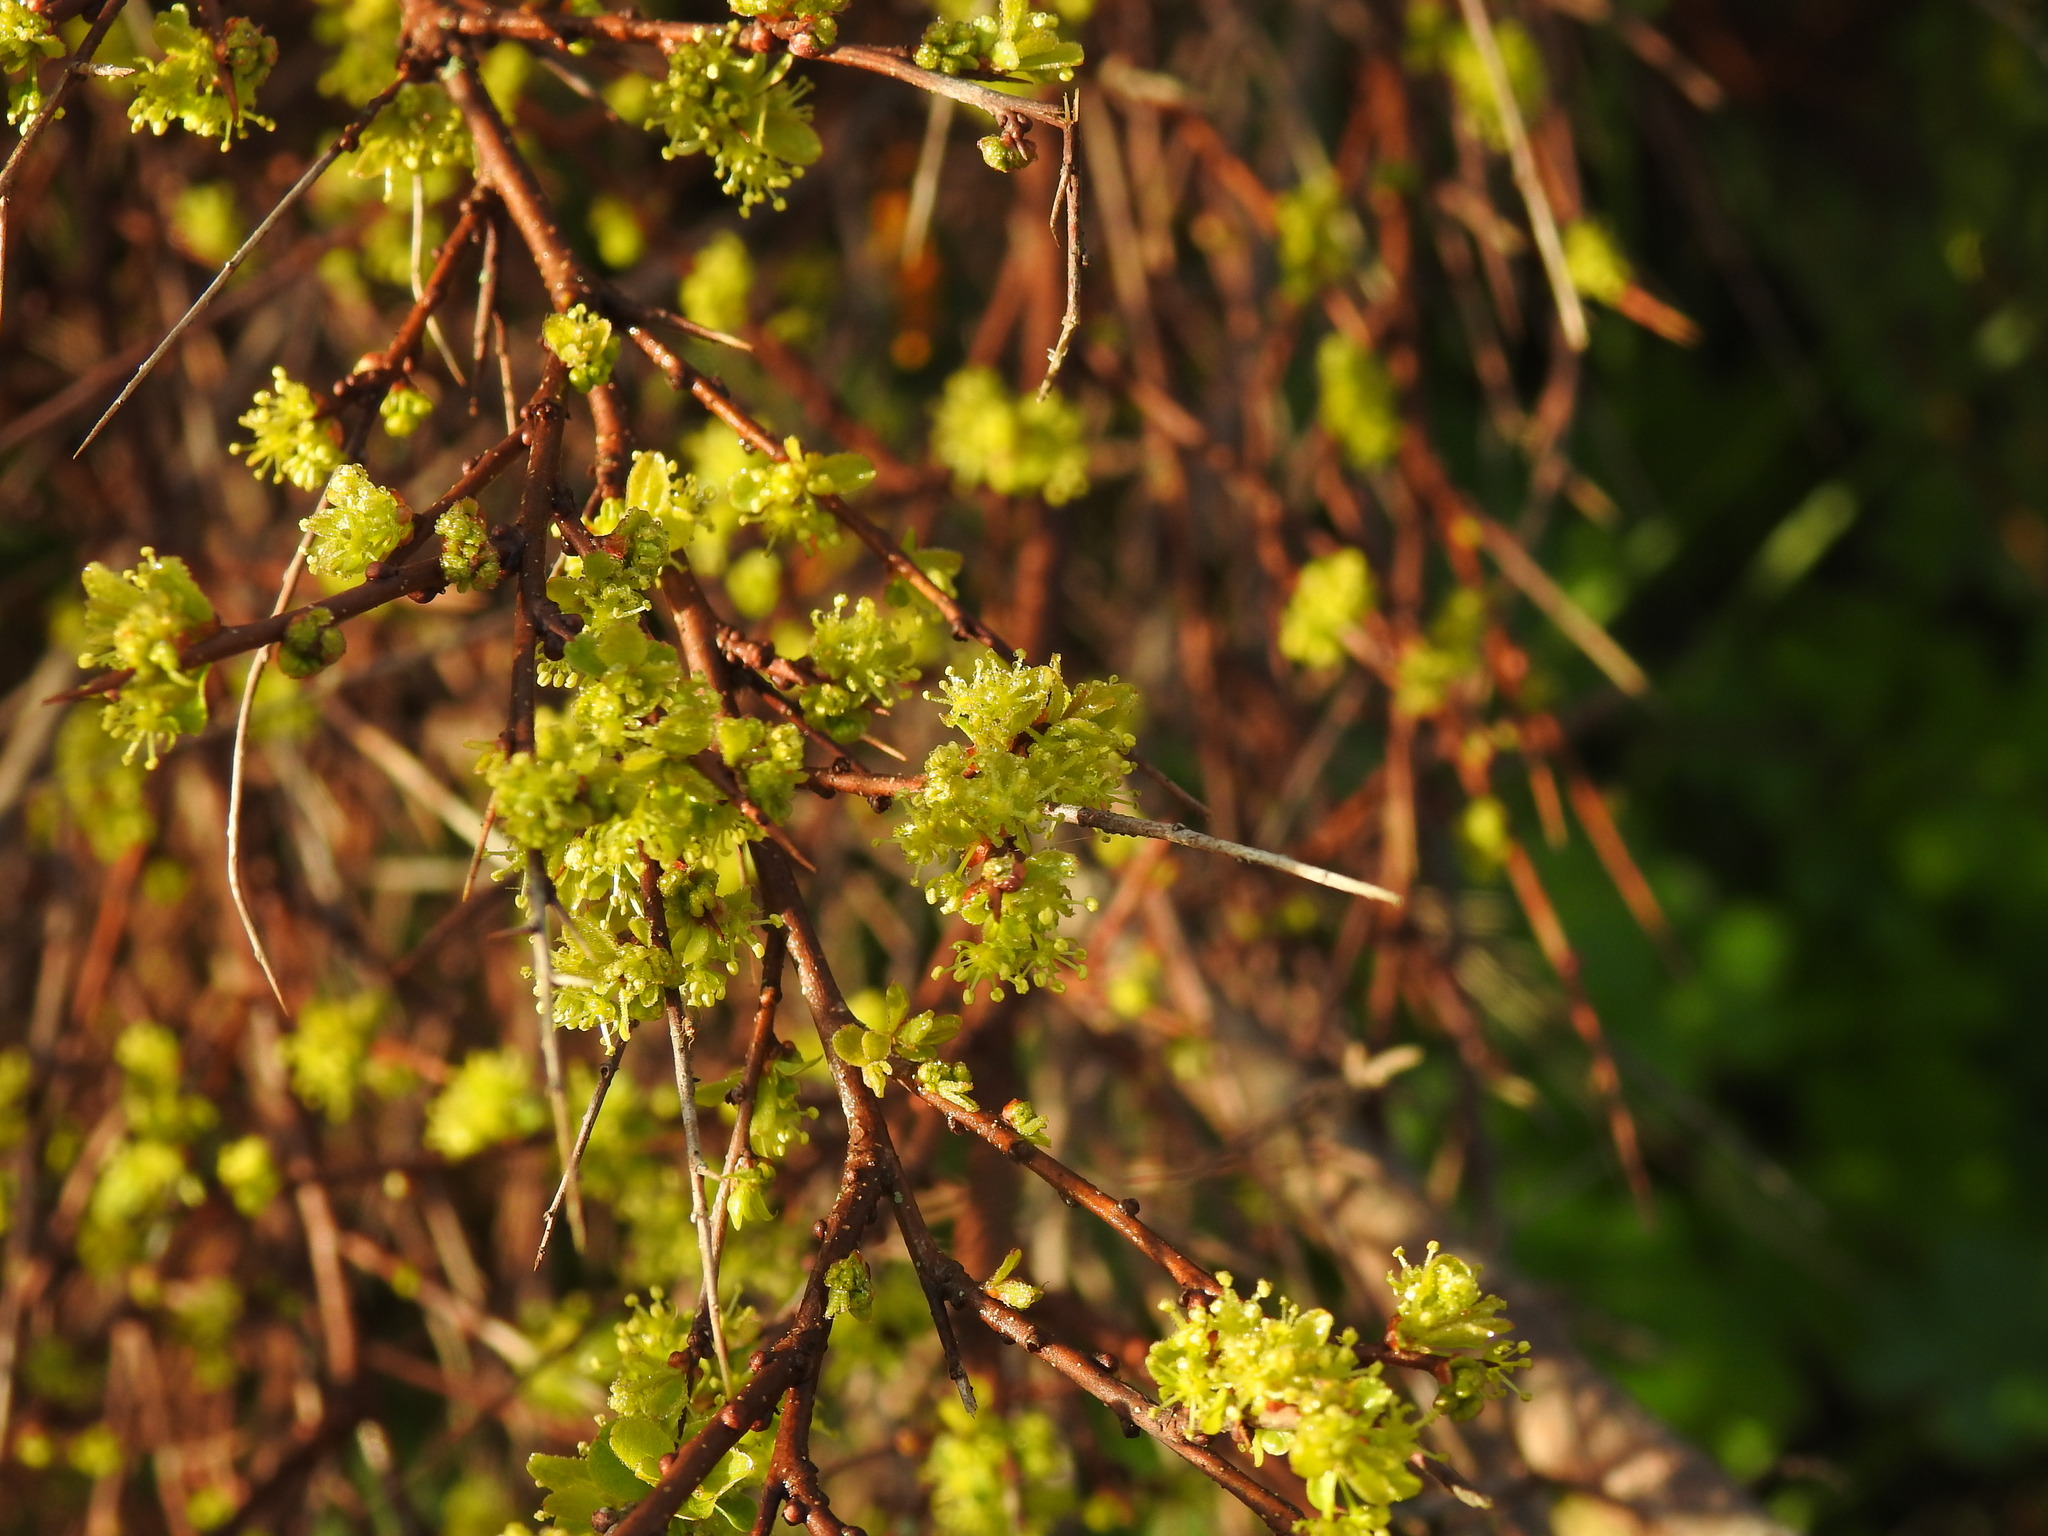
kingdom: Plantae
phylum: Tracheophyta
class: Magnoliopsida
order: Malpighiales
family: Phyllanthaceae
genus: Flueggea
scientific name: Flueggea tinctoria
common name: Tamujo
